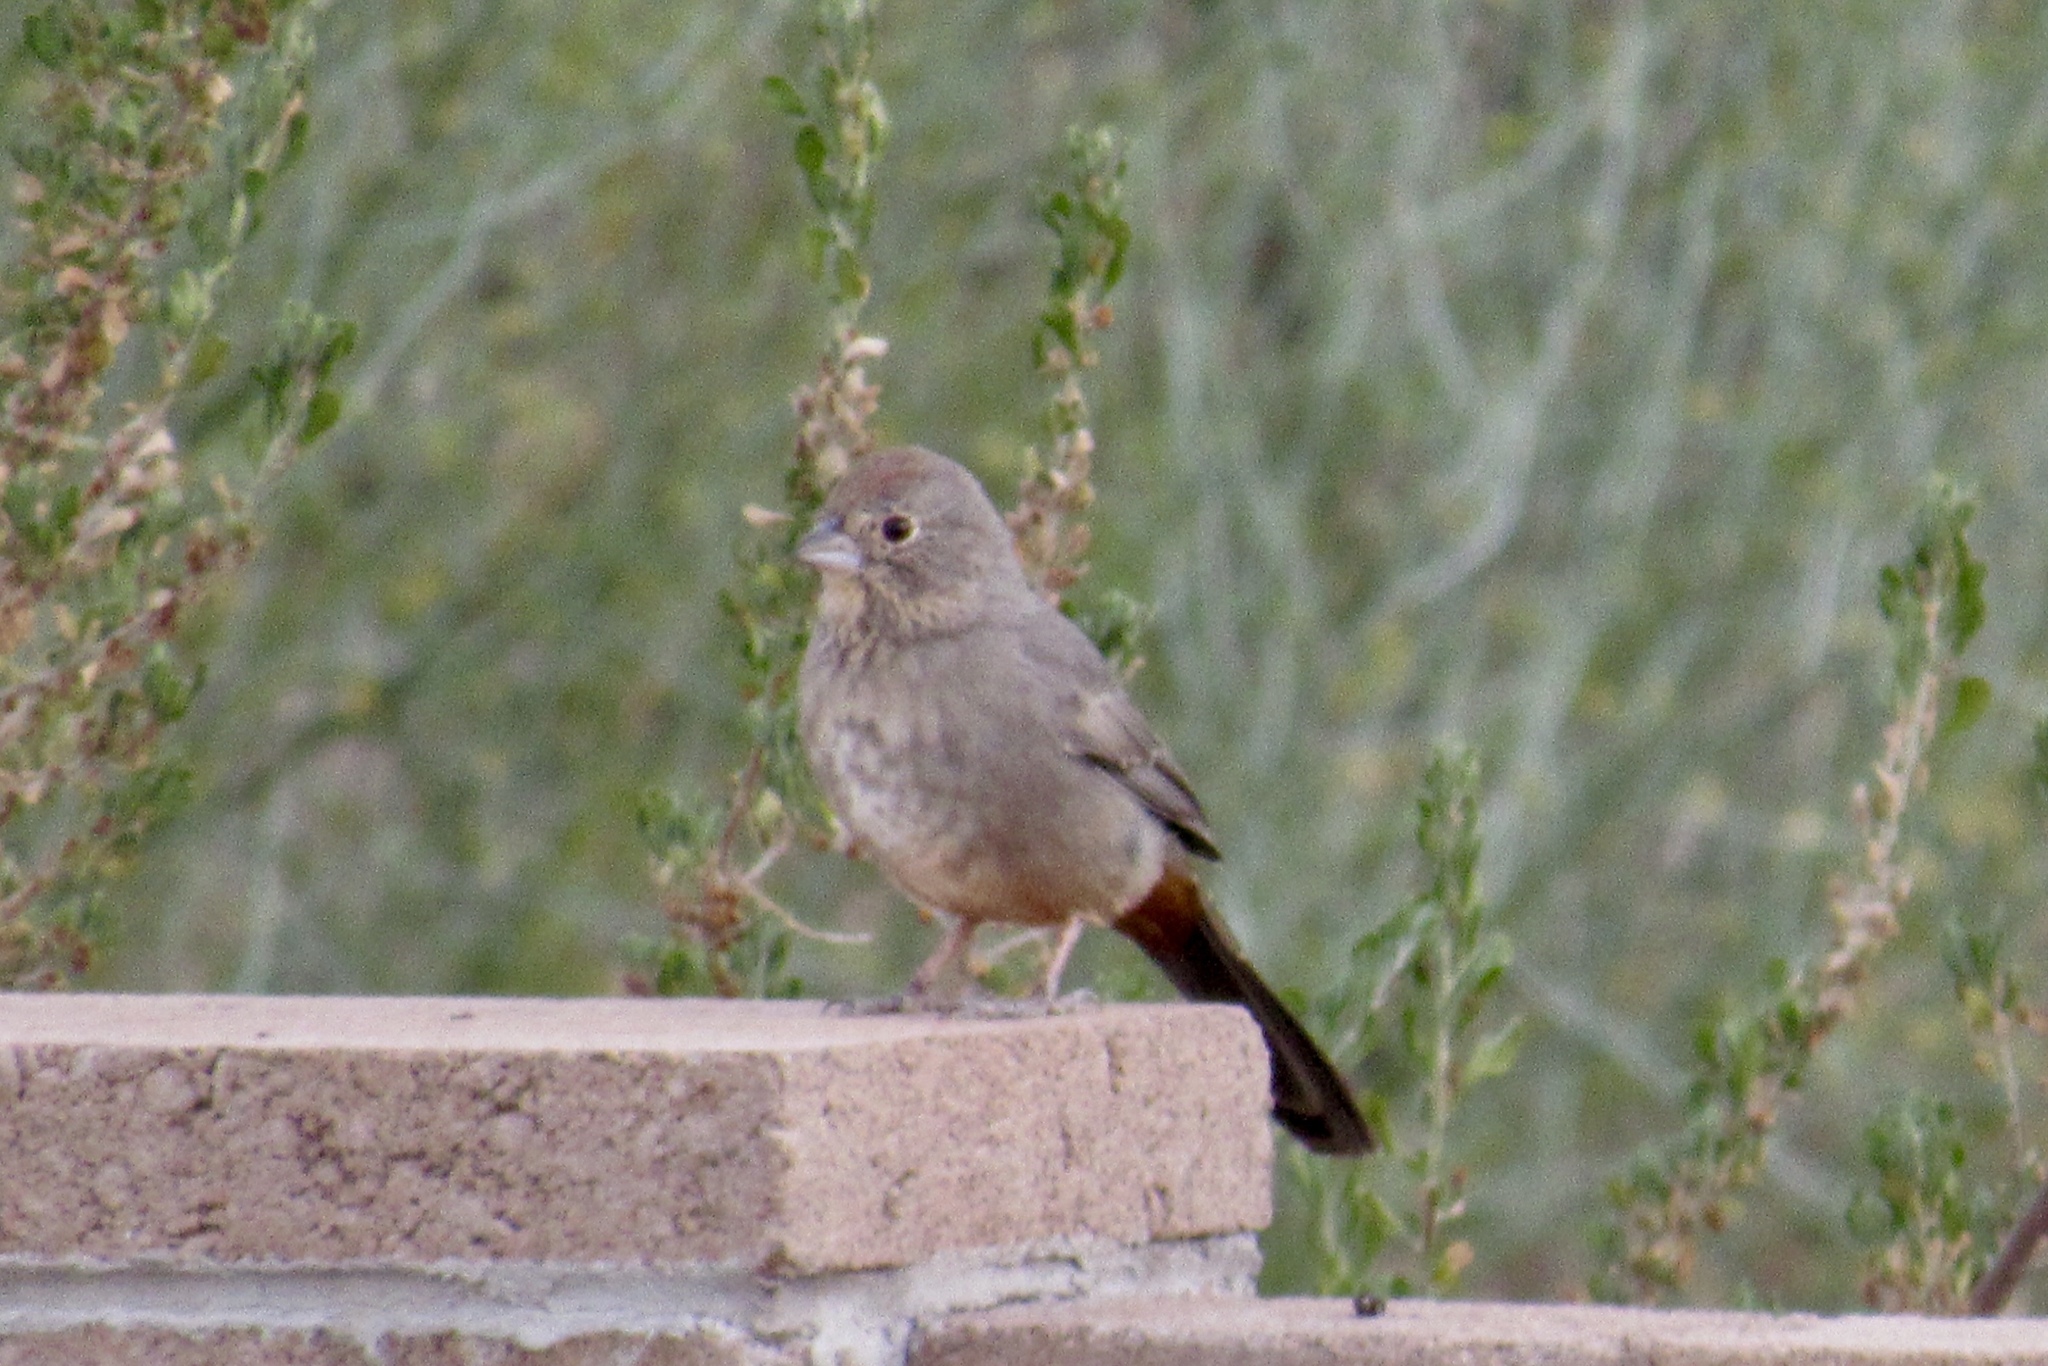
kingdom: Animalia
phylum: Chordata
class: Aves
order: Passeriformes
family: Passerellidae
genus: Melozone
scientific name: Melozone fusca
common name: Canyon towhee
